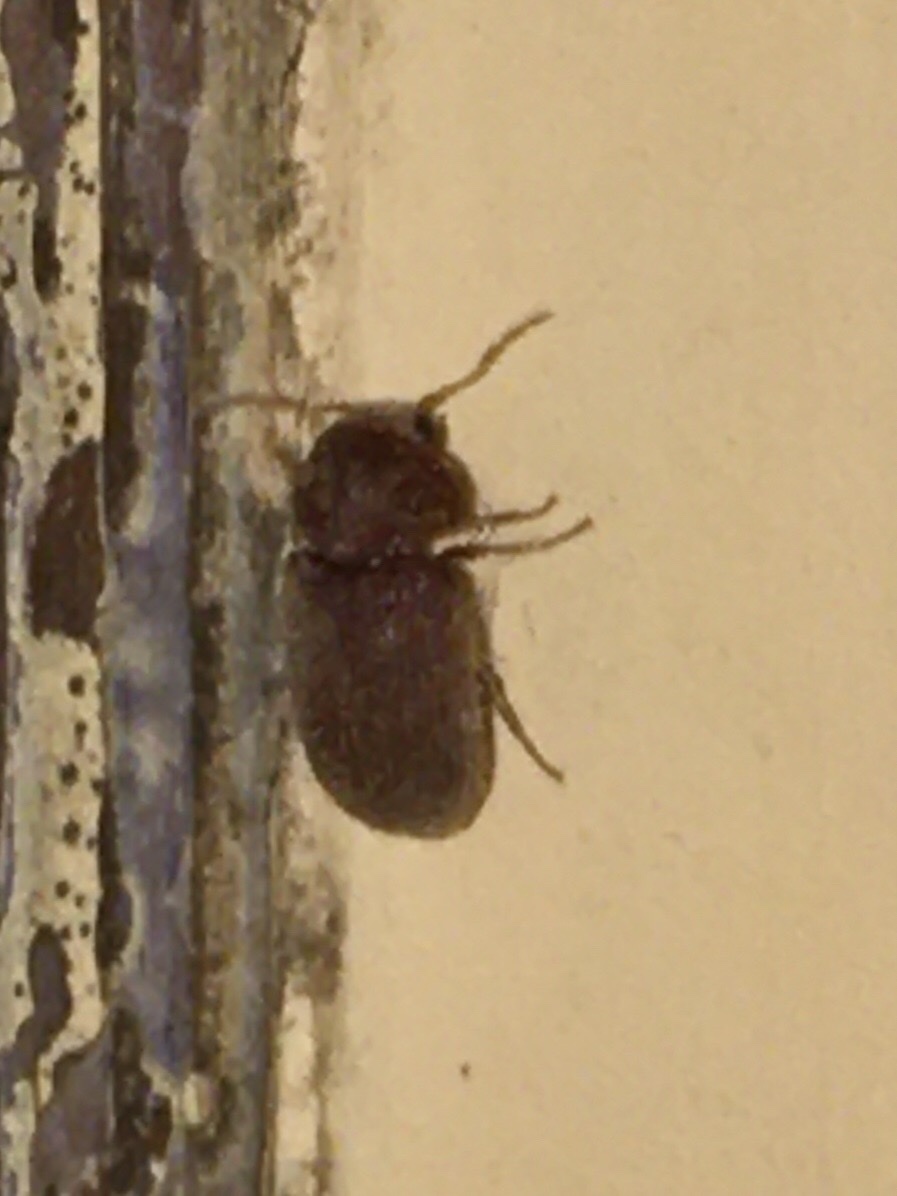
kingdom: Animalia
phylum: Arthropoda
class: Insecta
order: Coleoptera
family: Anobiidae
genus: Stegobium
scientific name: Stegobium paniceum
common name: Drugstore beetle
